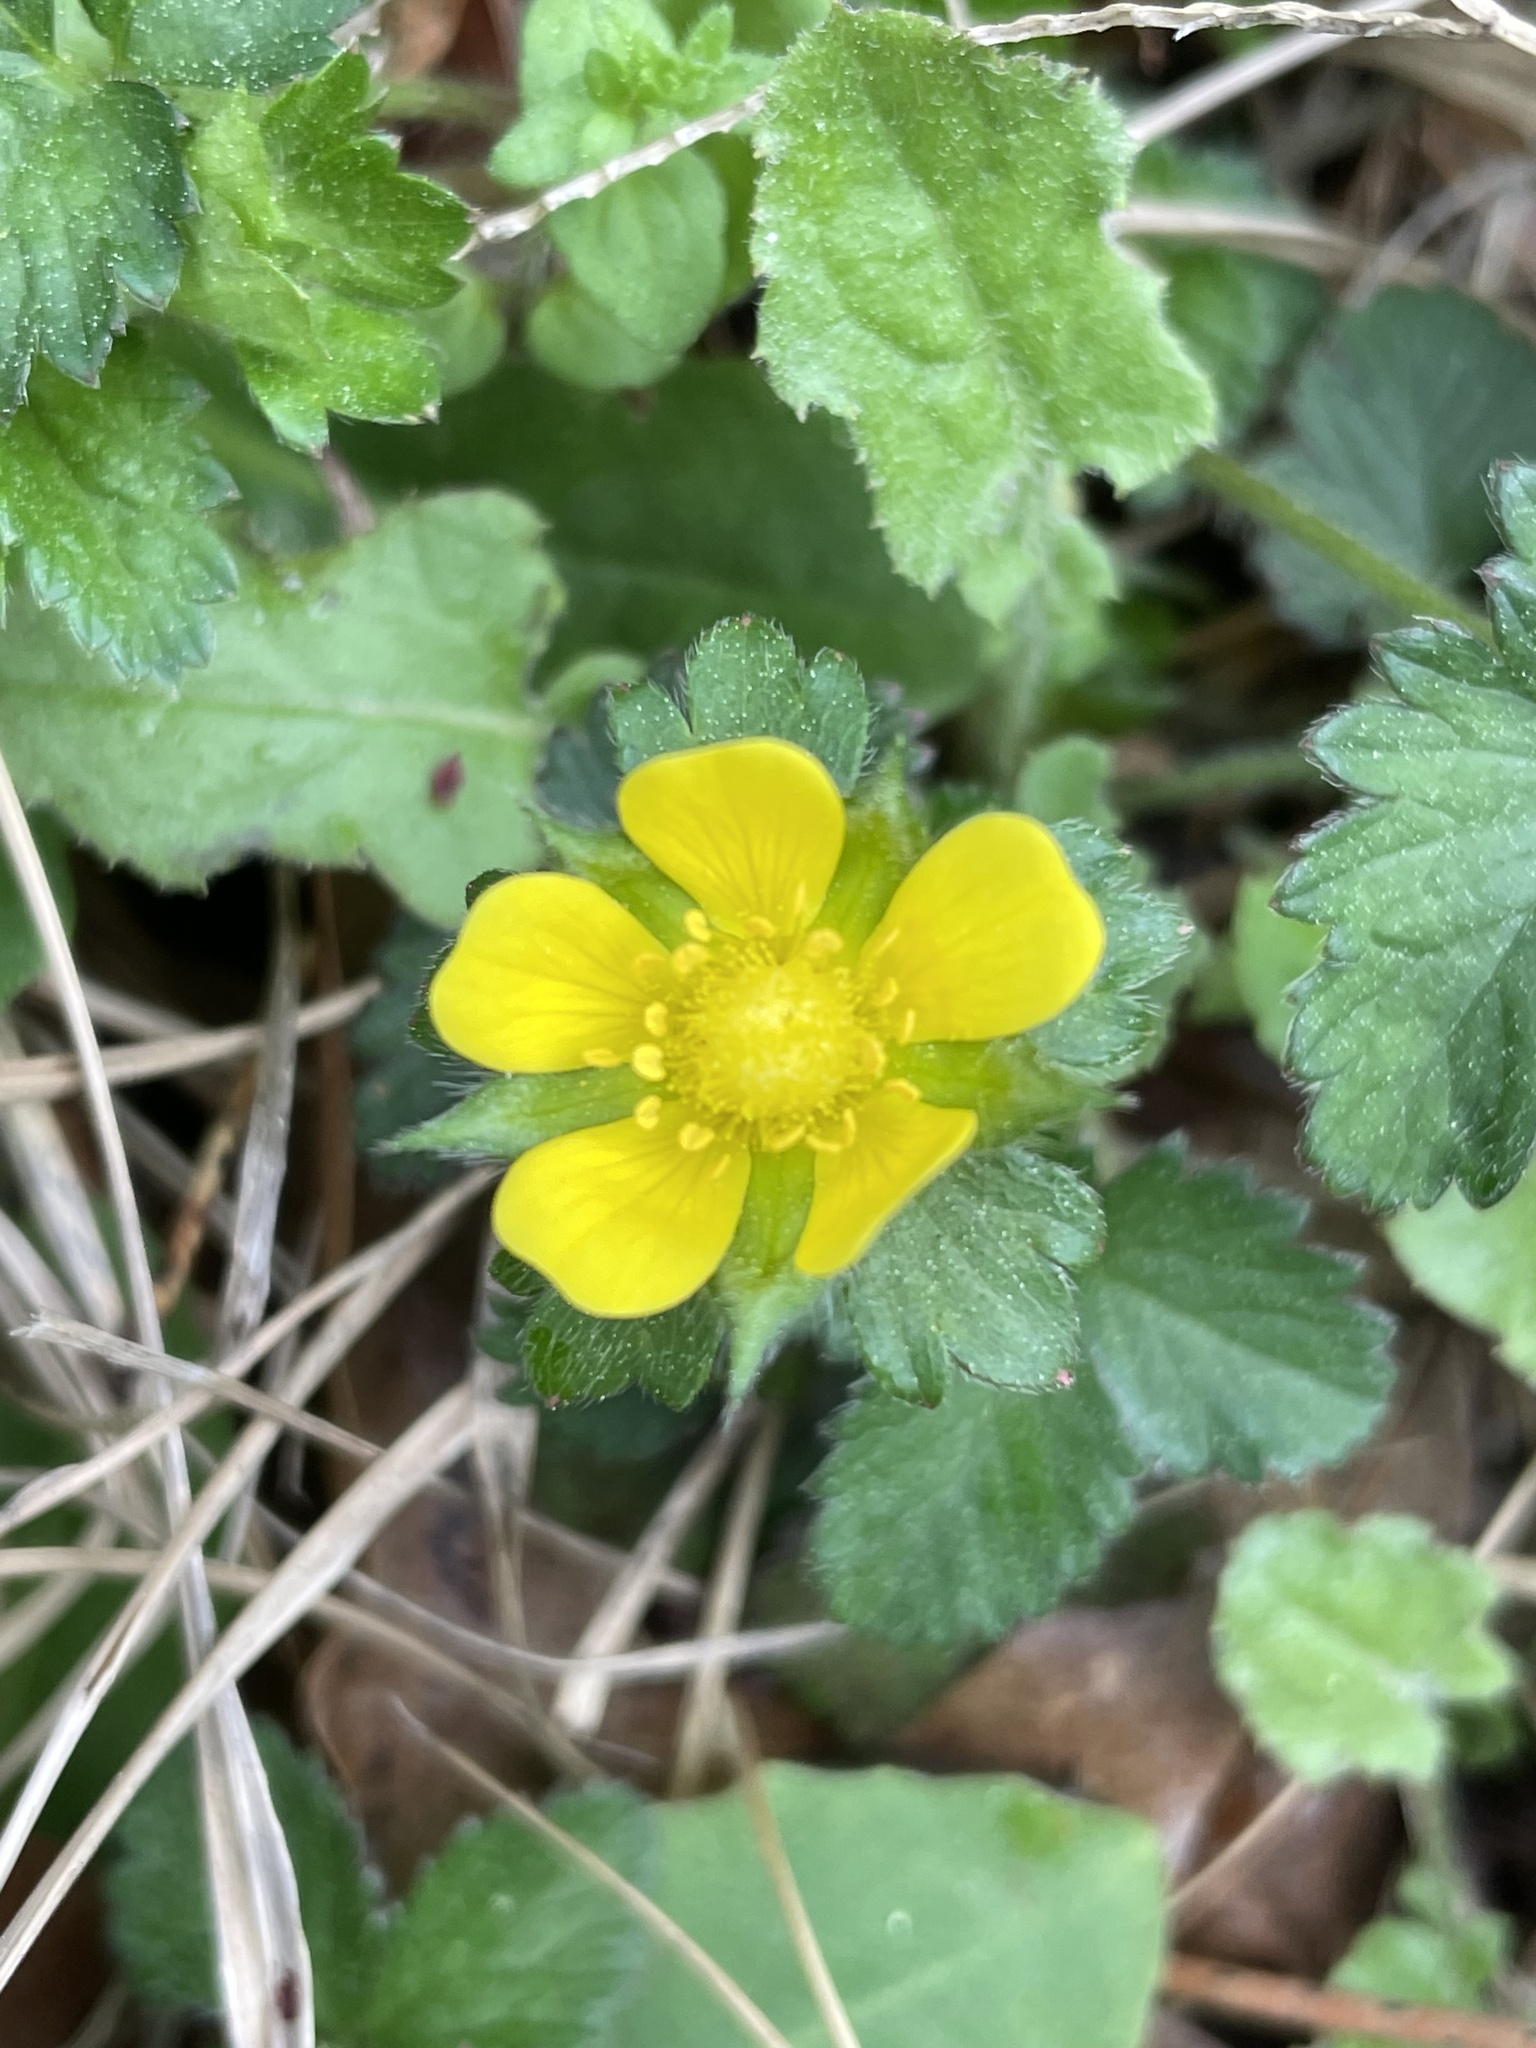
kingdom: Plantae
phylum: Tracheophyta
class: Magnoliopsida
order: Rosales
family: Rosaceae
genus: Potentilla
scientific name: Potentilla indica
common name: Yellow-flowered strawberry
